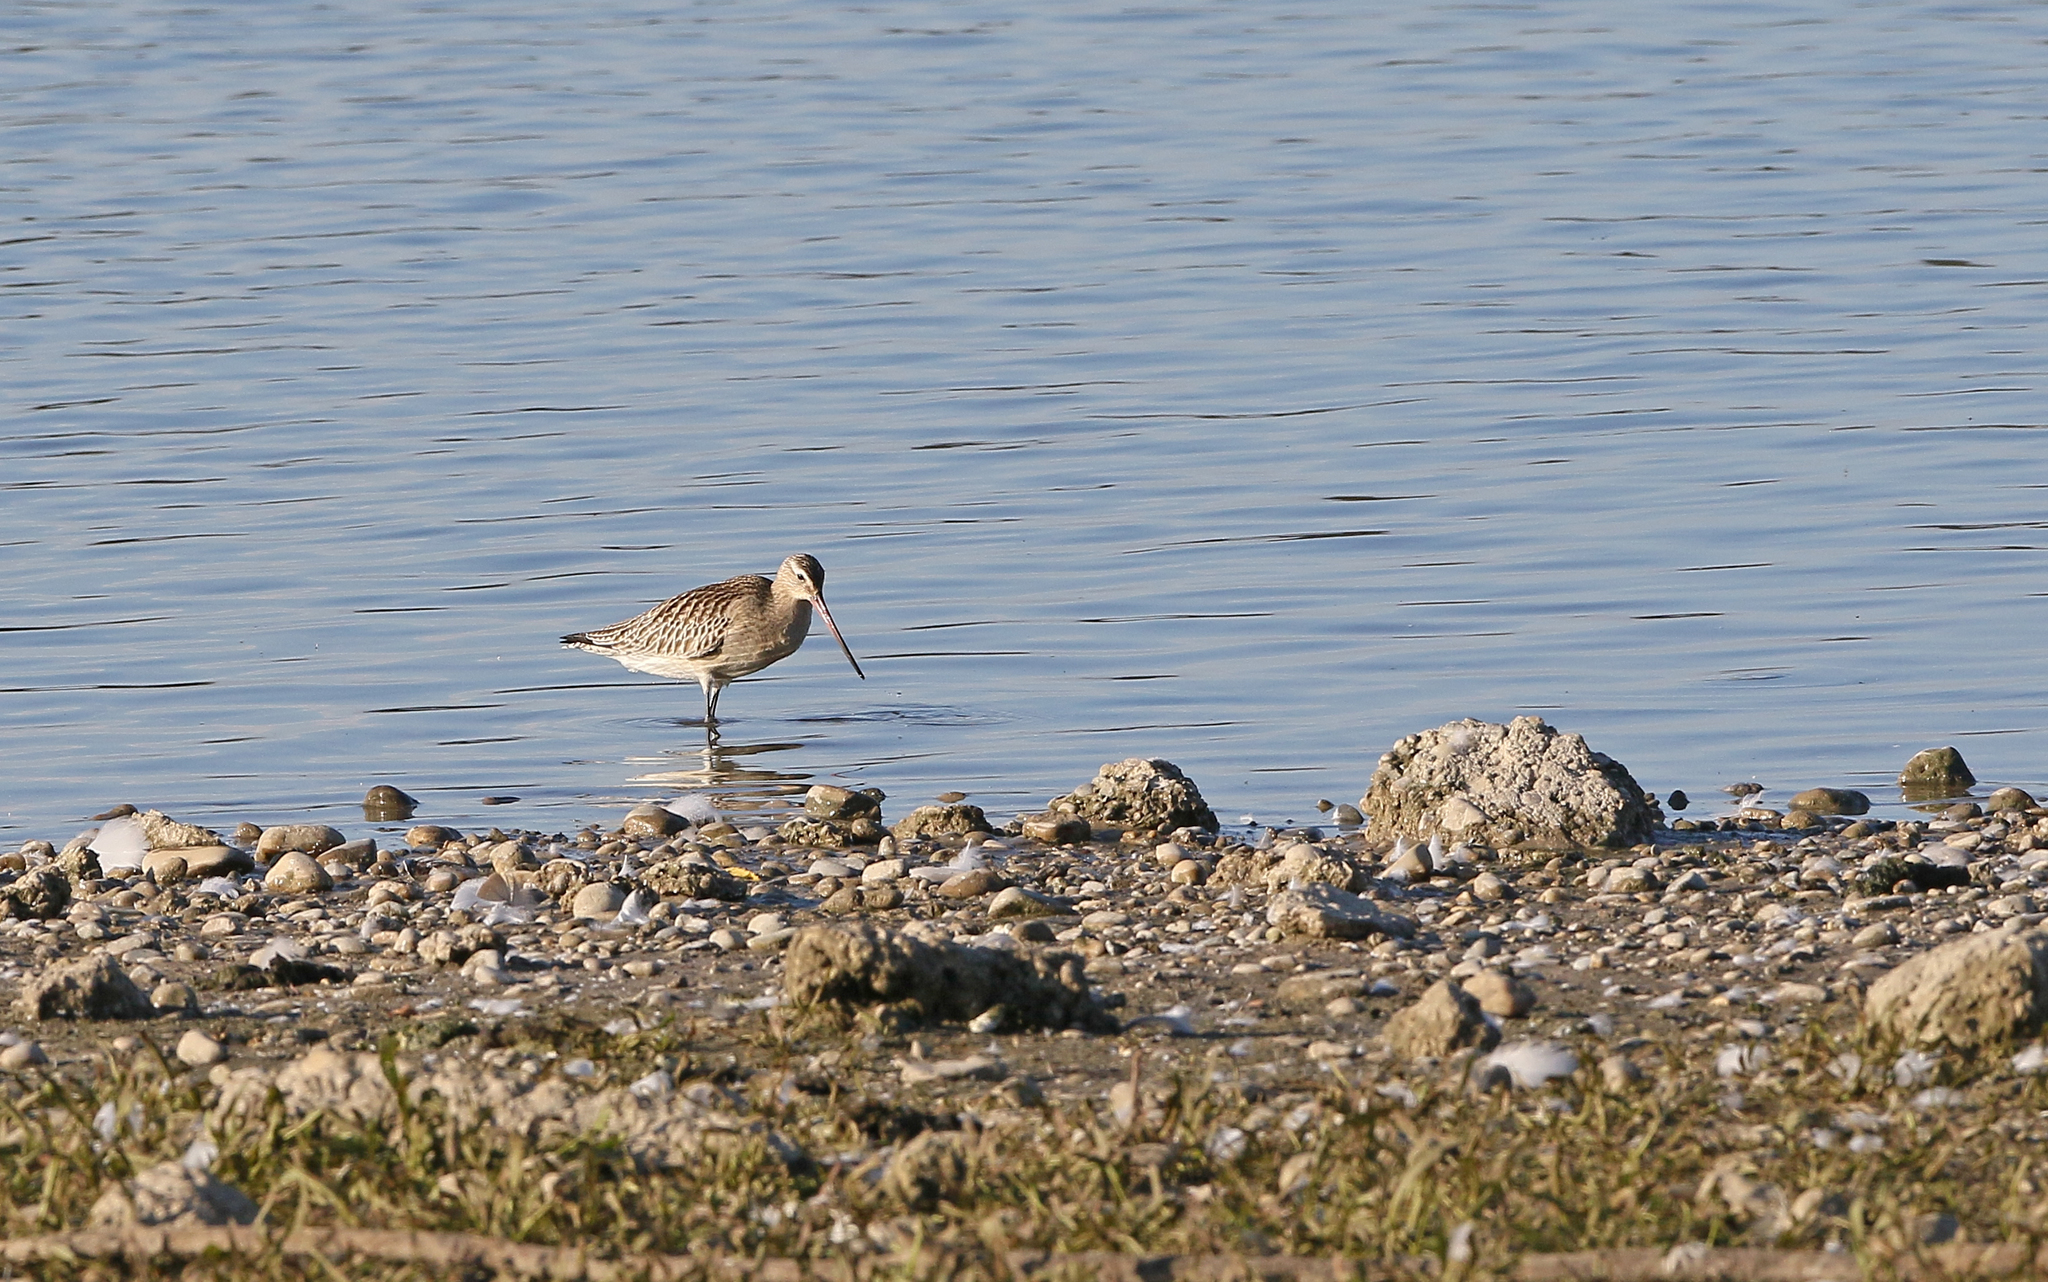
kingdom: Animalia
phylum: Chordata
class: Aves
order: Charadriiformes
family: Scolopacidae
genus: Limosa
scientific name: Limosa lapponica
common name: Bar-tailed godwit
